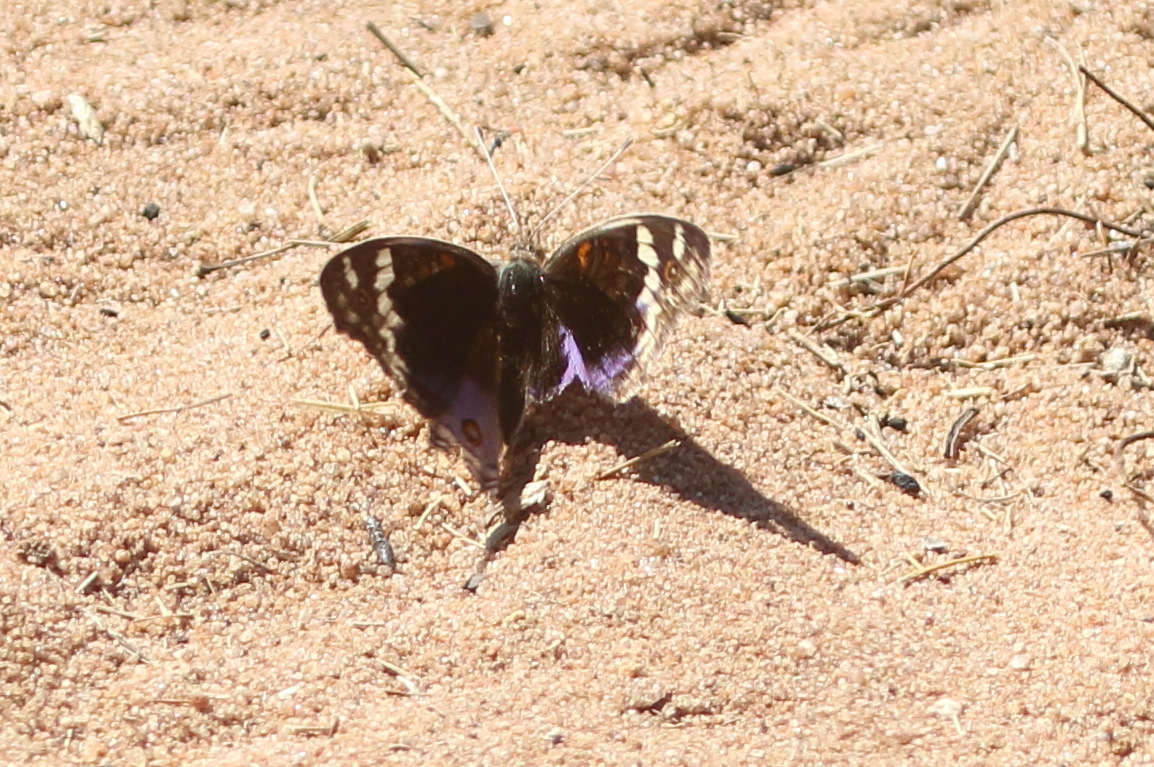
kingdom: Animalia
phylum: Arthropoda
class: Insecta
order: Lepidoptera
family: Nymphalidae
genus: Junonia
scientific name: Junonia orithya
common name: Blue pansy
